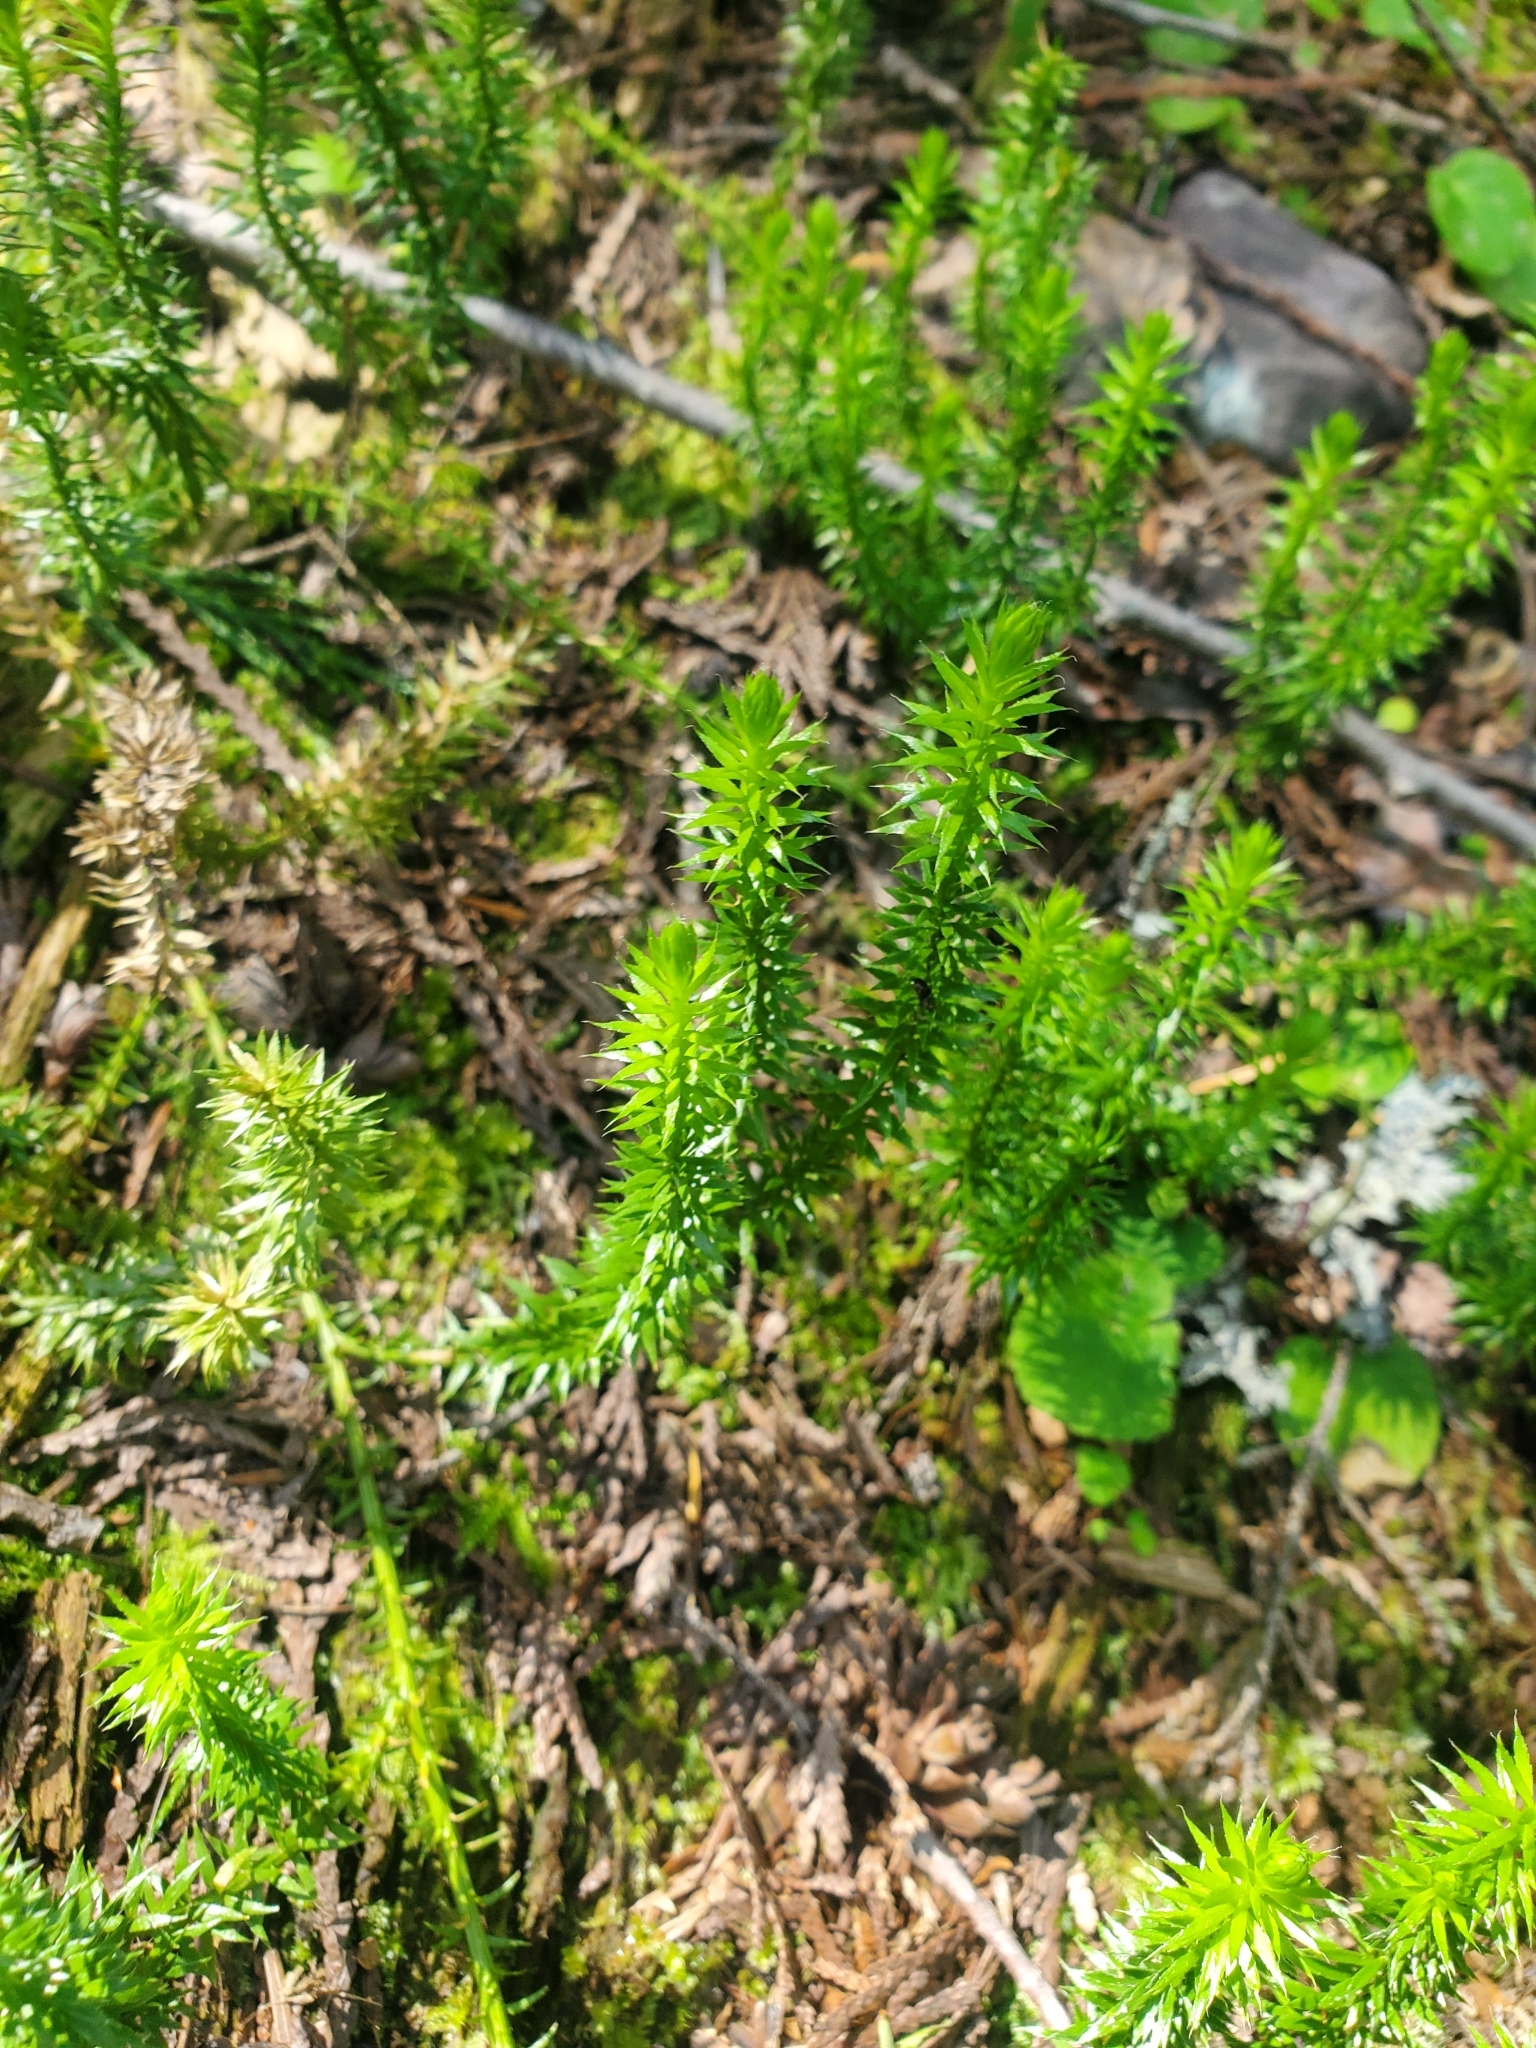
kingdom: Plantae
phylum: Tracheophyta
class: Lycopodiopsida
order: Lycopodiales
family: Lycopodiaceae
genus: Spinulum
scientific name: Spinulum annotinum
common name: Interrupted club-moss
